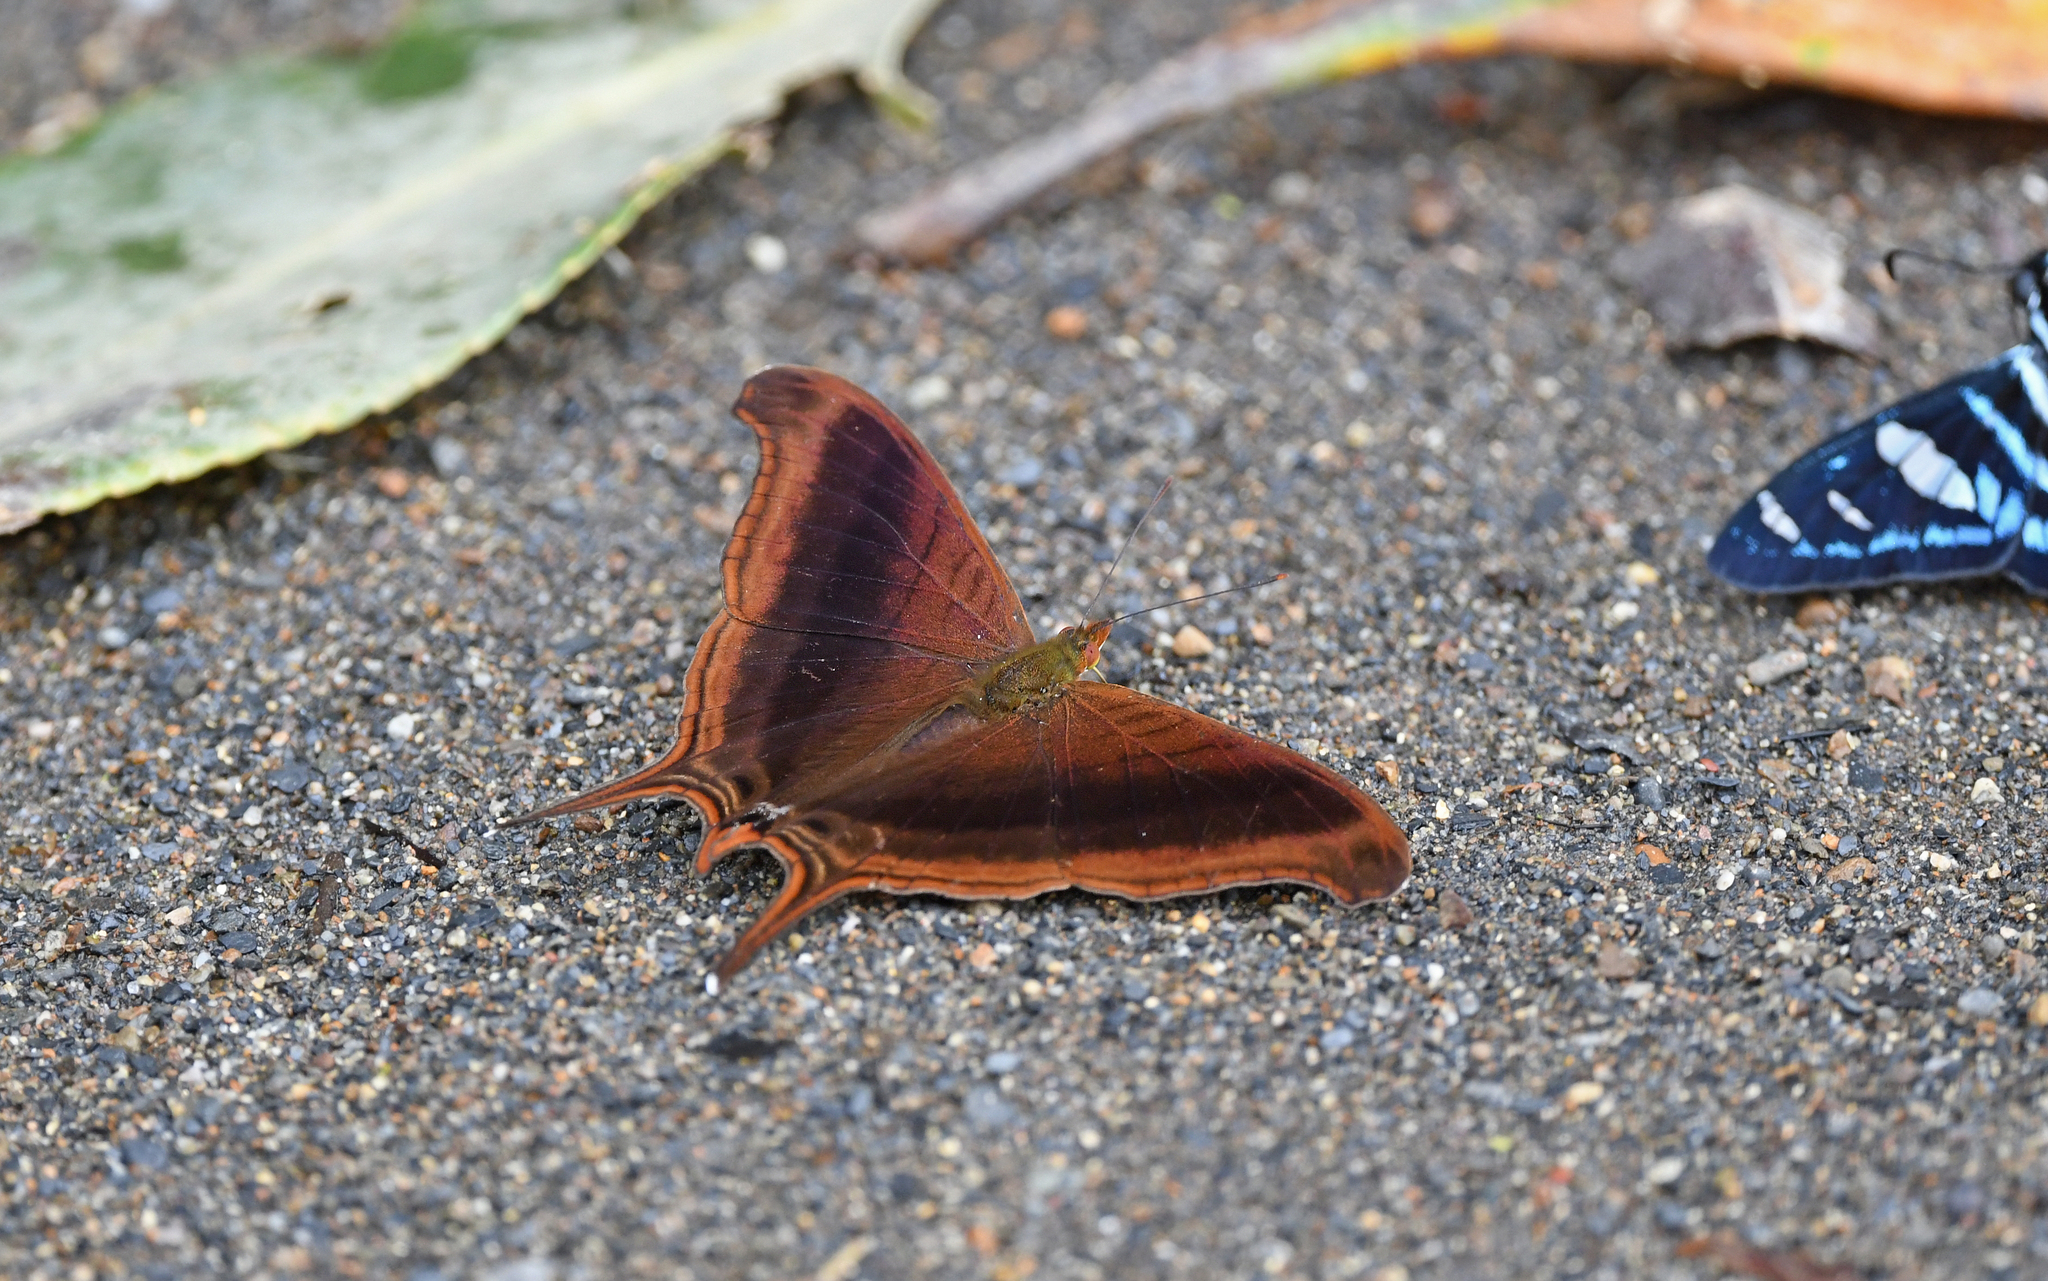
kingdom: Animalia
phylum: Arthropoda
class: Insecta
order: Lepidoptera
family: Nymphalidae
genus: Marpesia
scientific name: Marpesia zerynthia
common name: Waiter daggerwing
